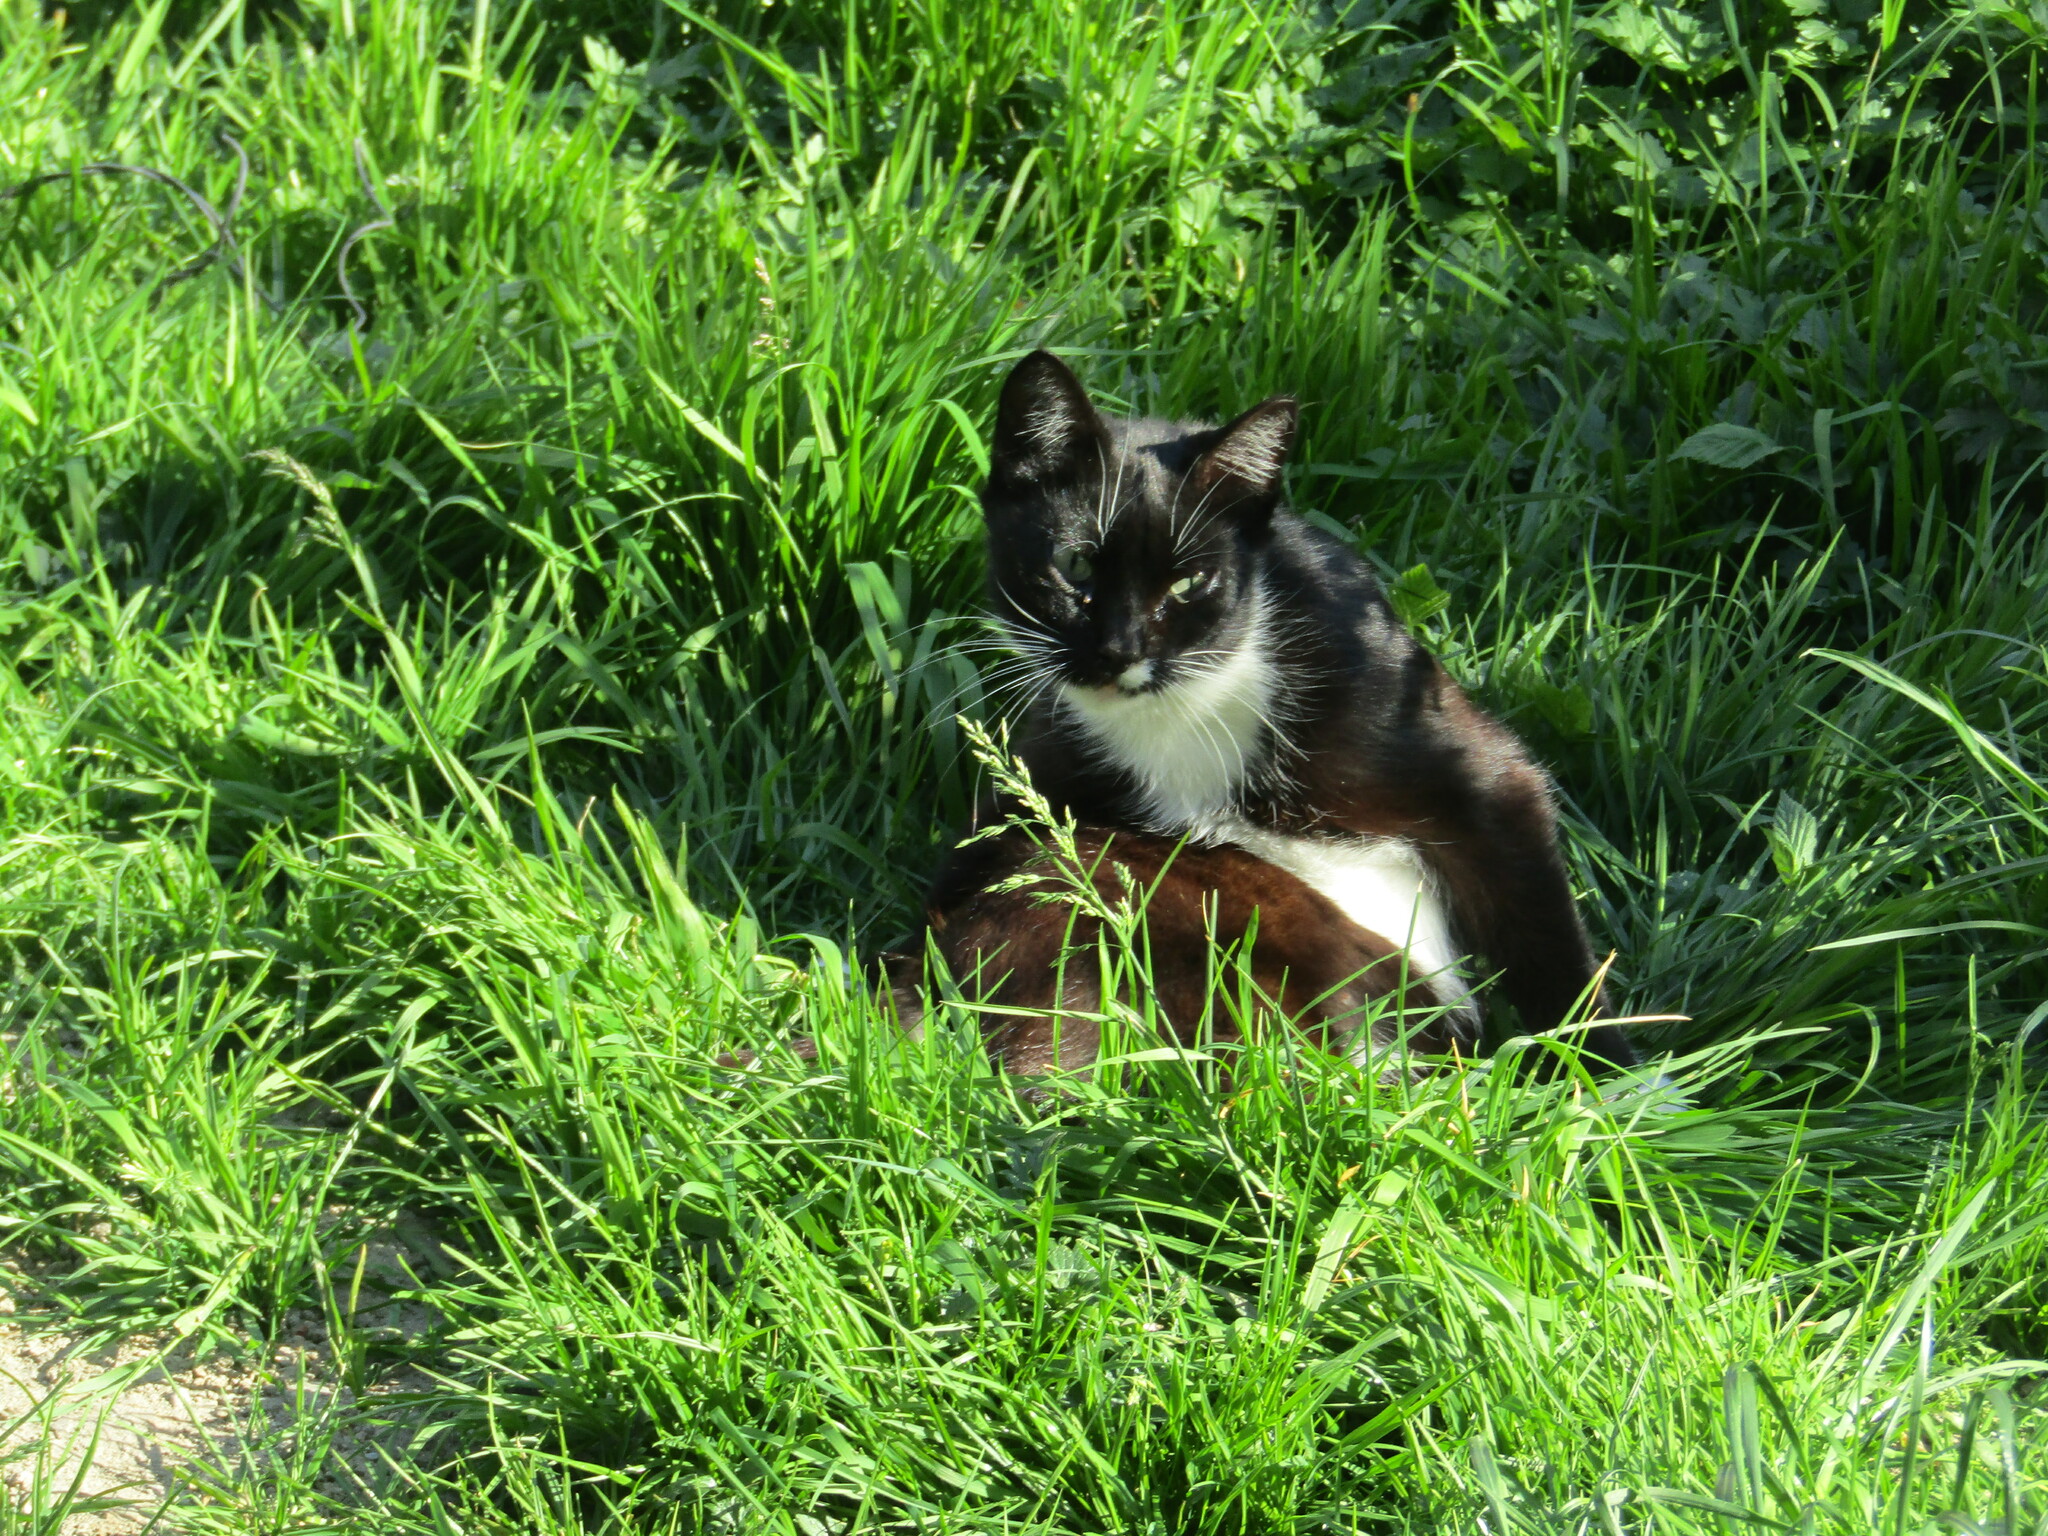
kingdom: Animalia
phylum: Chordata
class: Mammalia
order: Carnivora
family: Felidae
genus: Felis
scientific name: Felis catus
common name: Domestic cat
